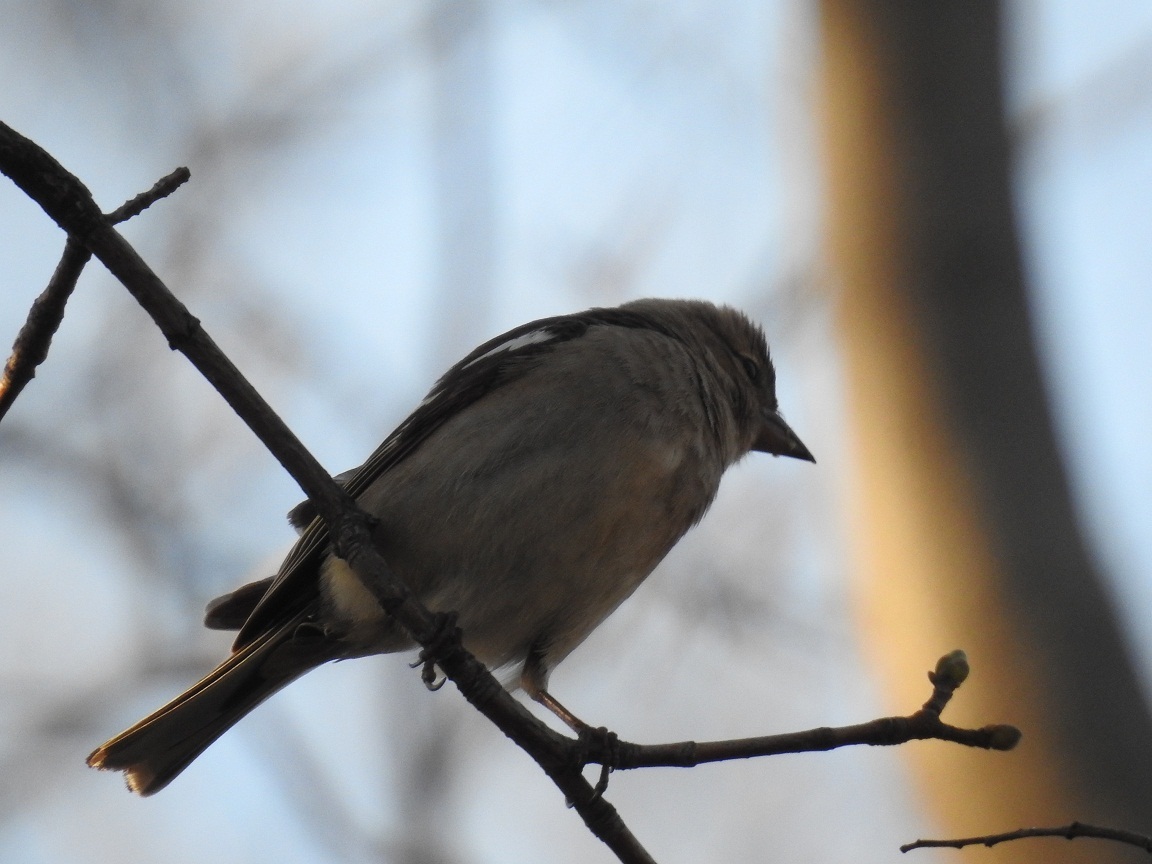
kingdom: Animalia
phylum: Chordata
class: Aves
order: Passeriformes
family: Fringillidae
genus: Fringilla
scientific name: Fringilla coelebs
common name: Common chaffinch
